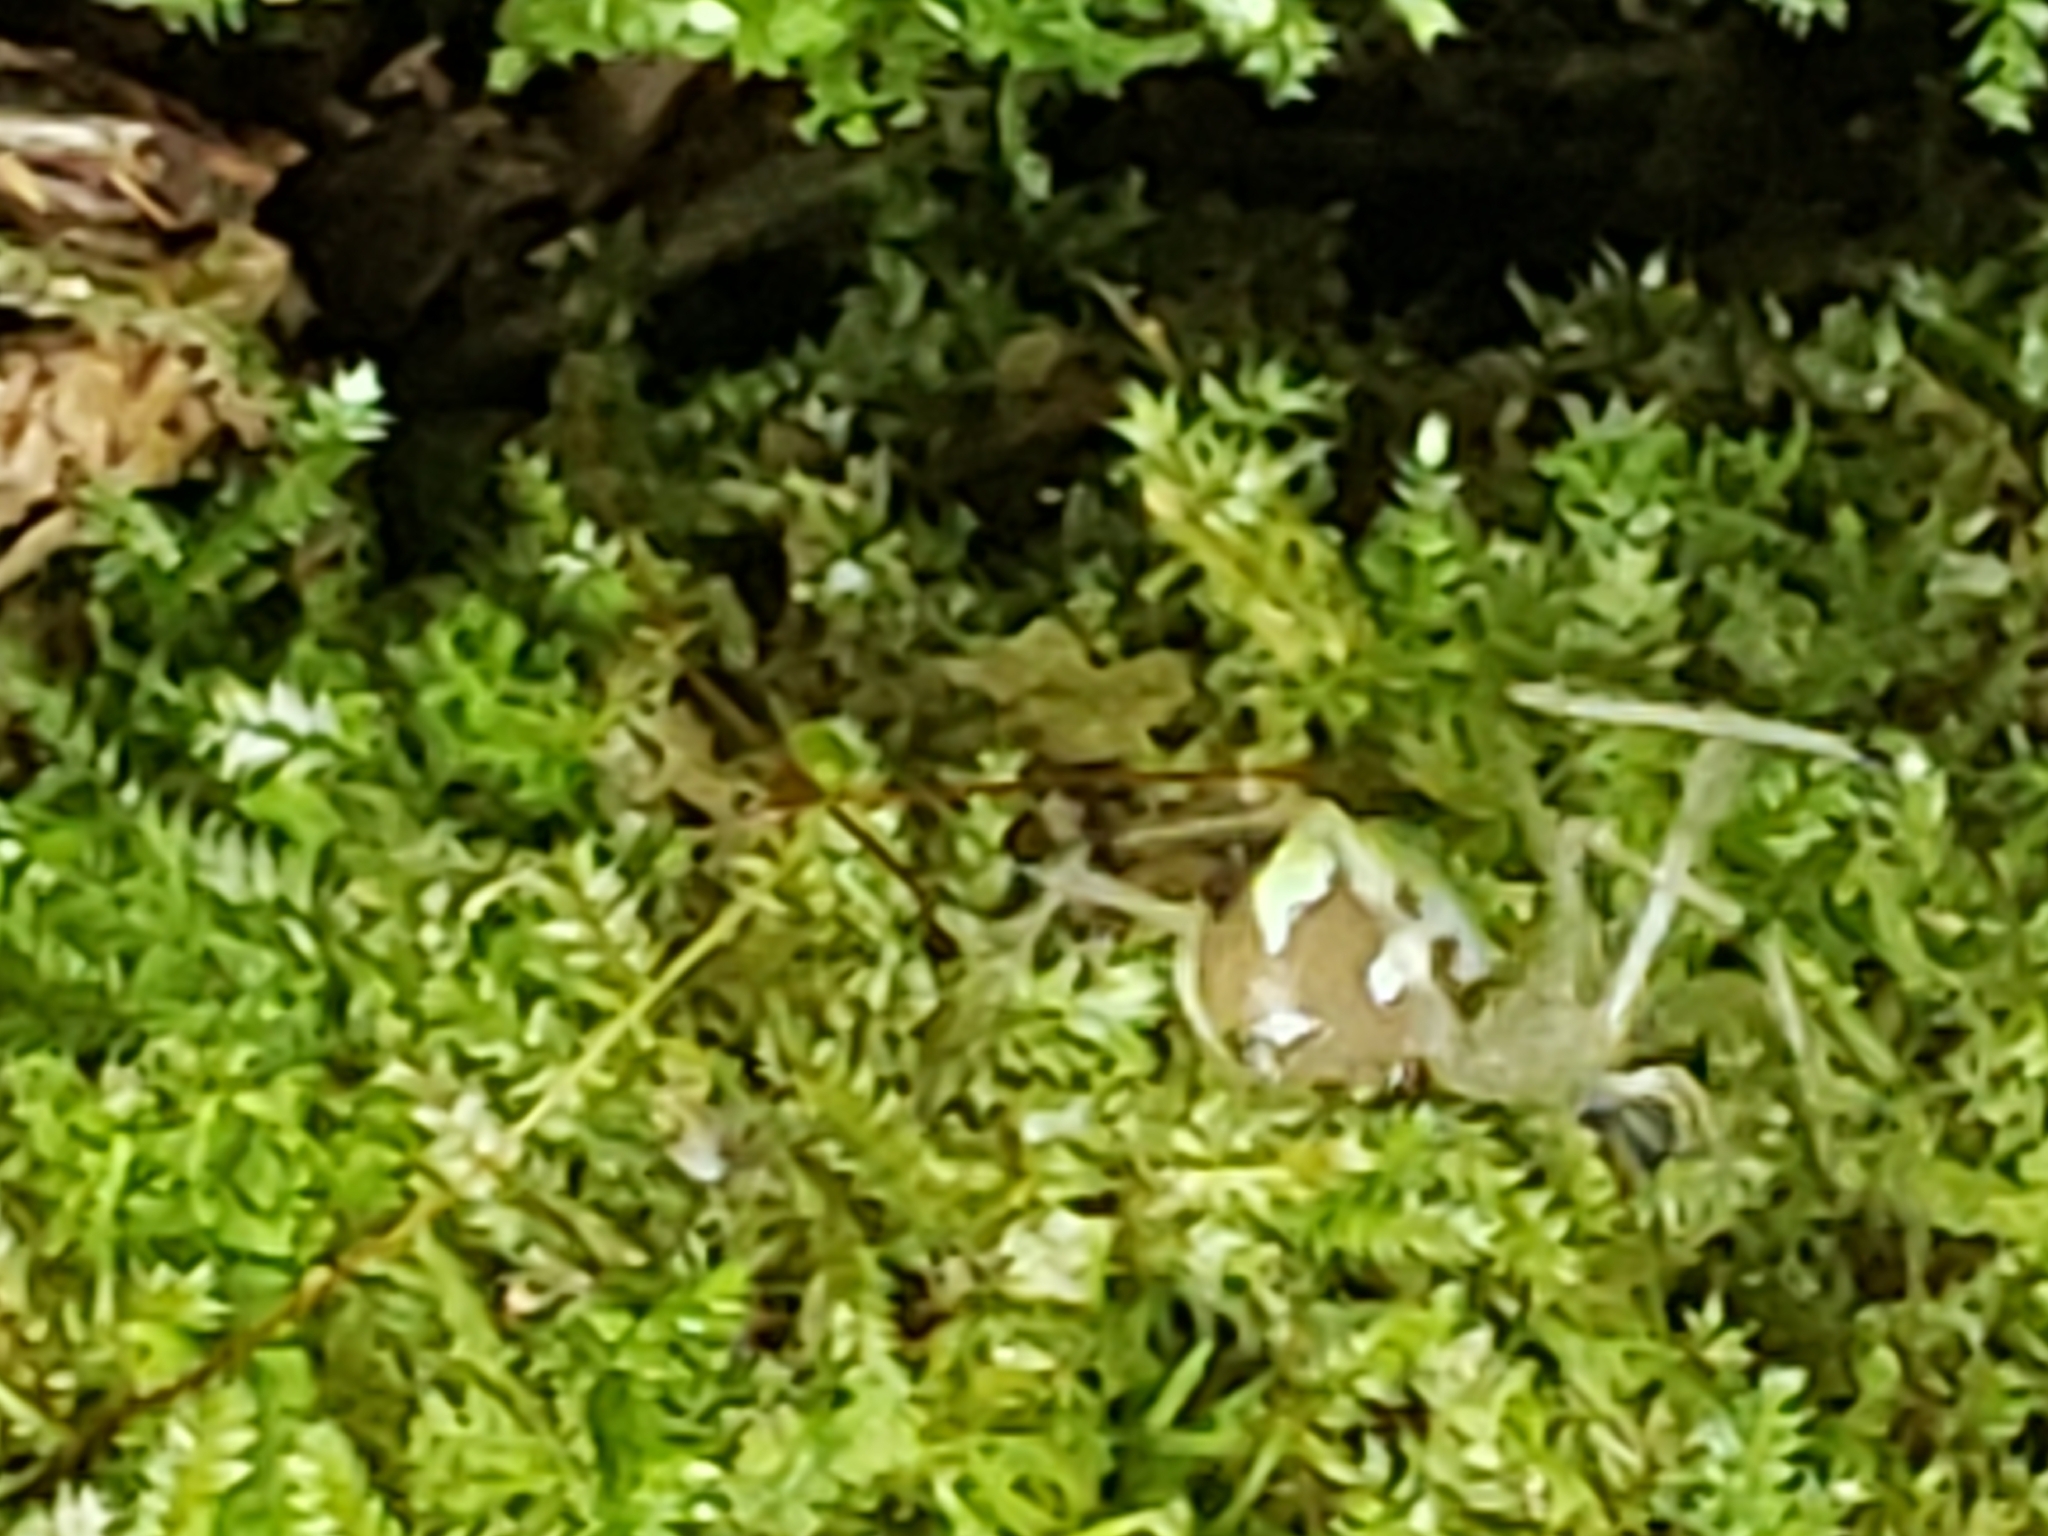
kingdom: Animalia
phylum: Arthropoda
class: Arachnida
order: Araneae
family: Theridiidae
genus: Phylloneta
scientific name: Phylloneta pictipes
